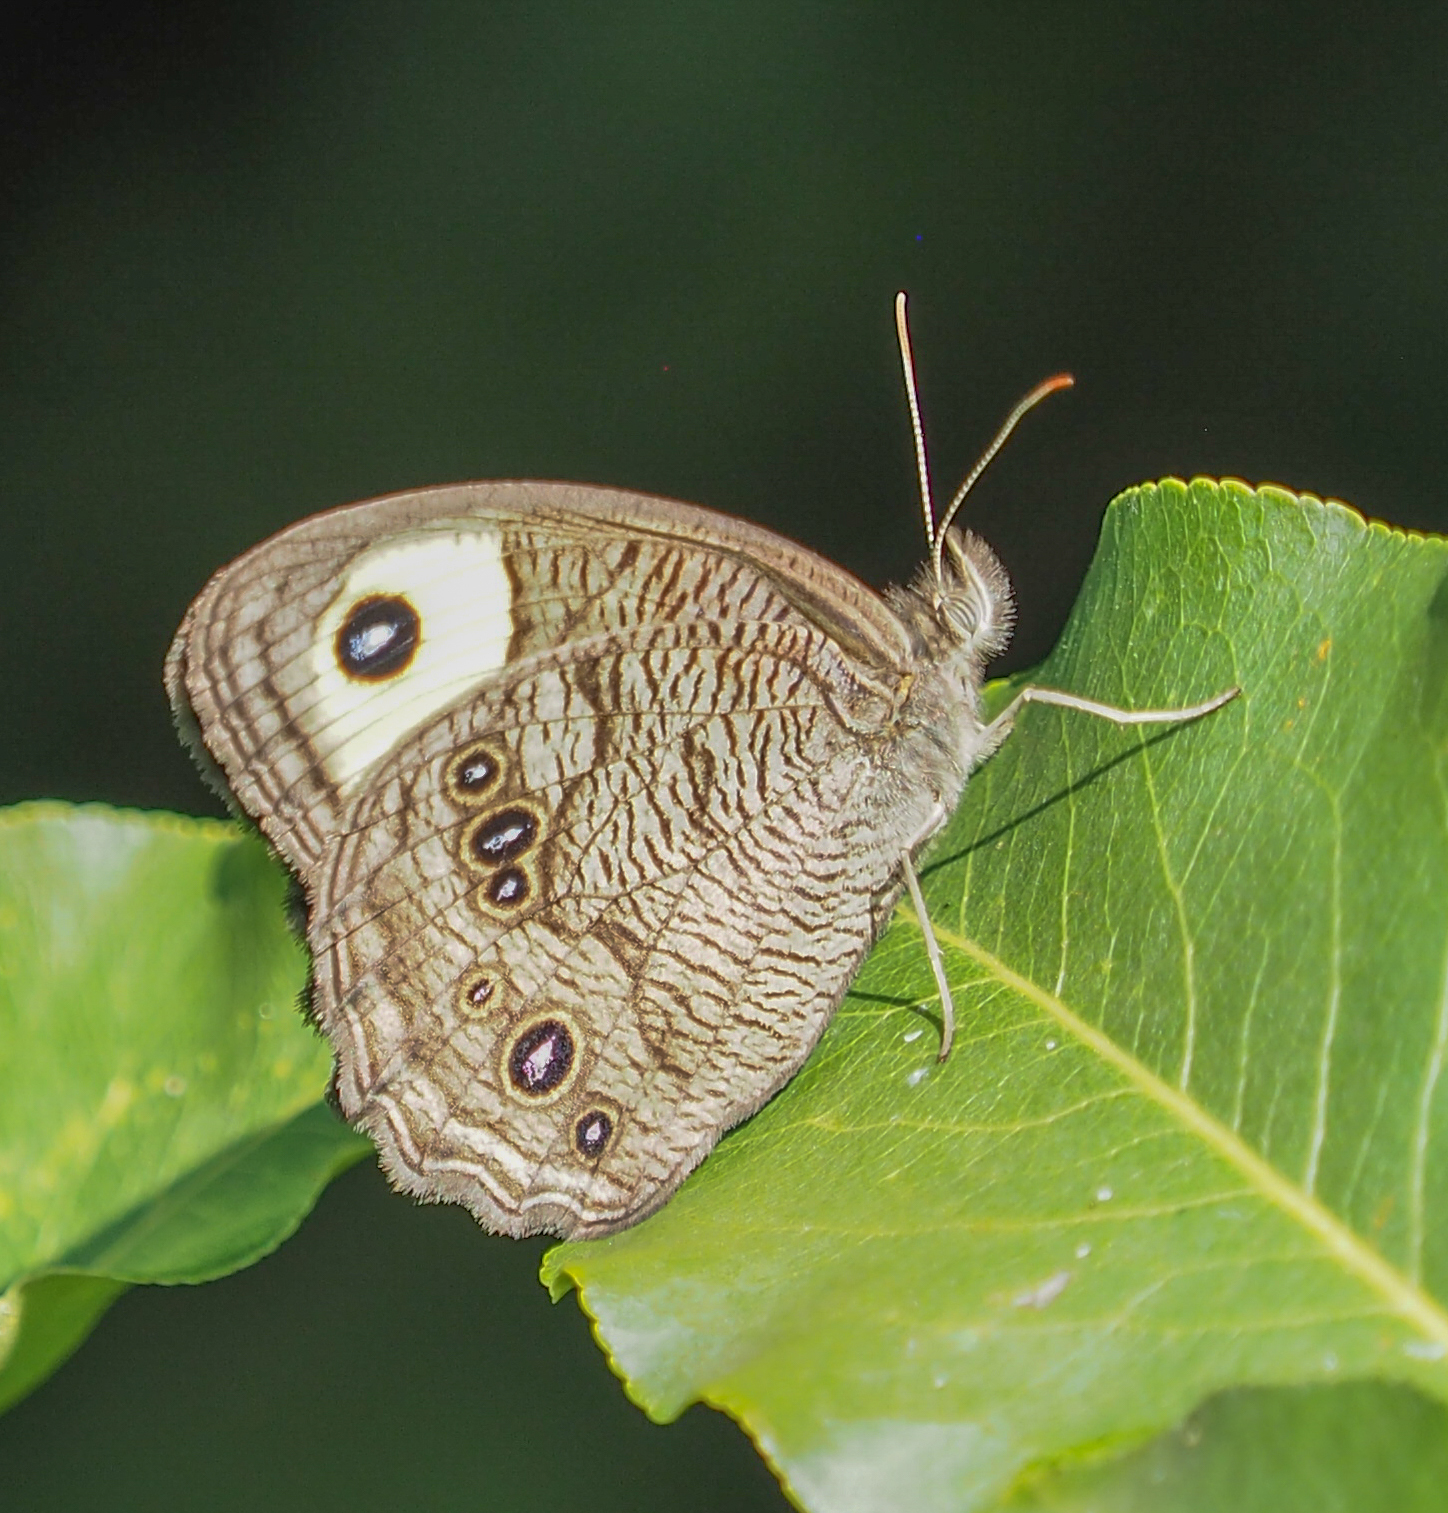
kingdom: Animalia
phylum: Arthropoda
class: Insecta
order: Lepidoptera
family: Nymphalidae
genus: Cercyonis
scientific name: Cercyonis pegala
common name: Common wood-nymph
